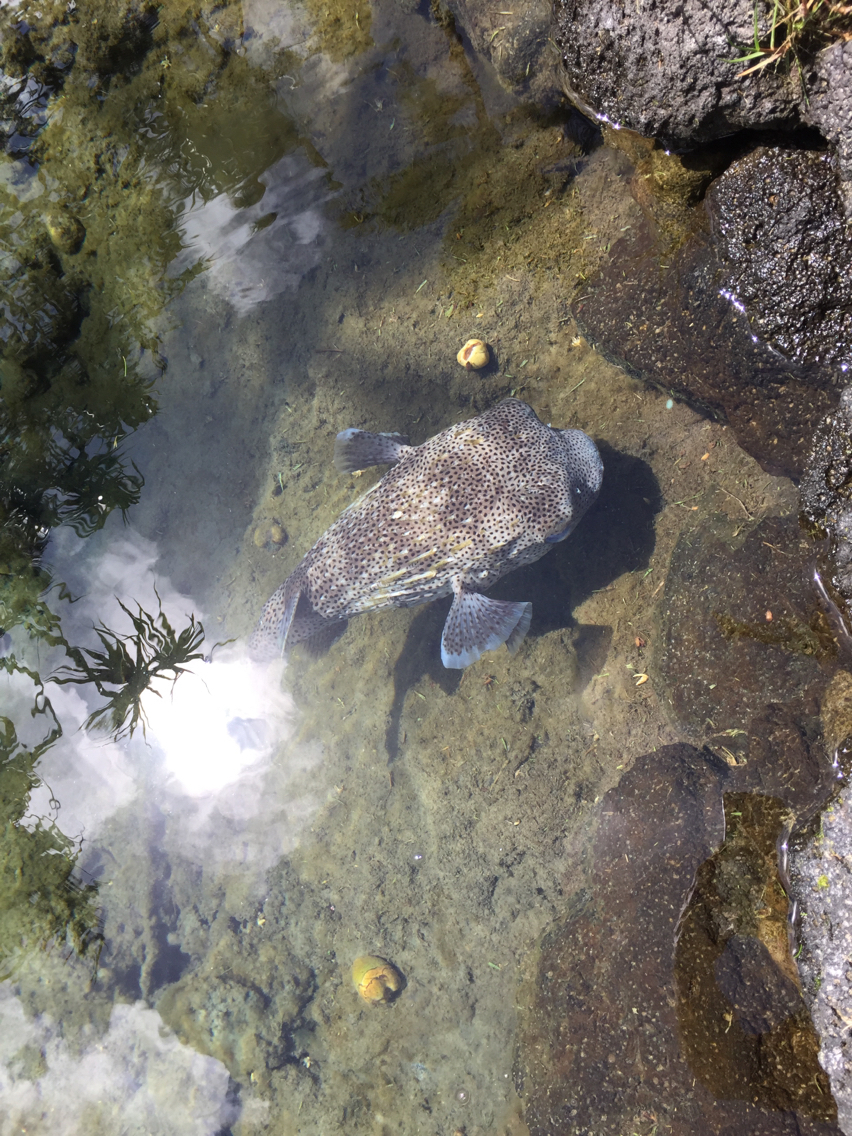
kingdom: Animalia
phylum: Chordata
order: Tetraodontiformes
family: Diodontidae
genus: Diodon
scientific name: Diodon hystrix
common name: Giant porcupinefish
